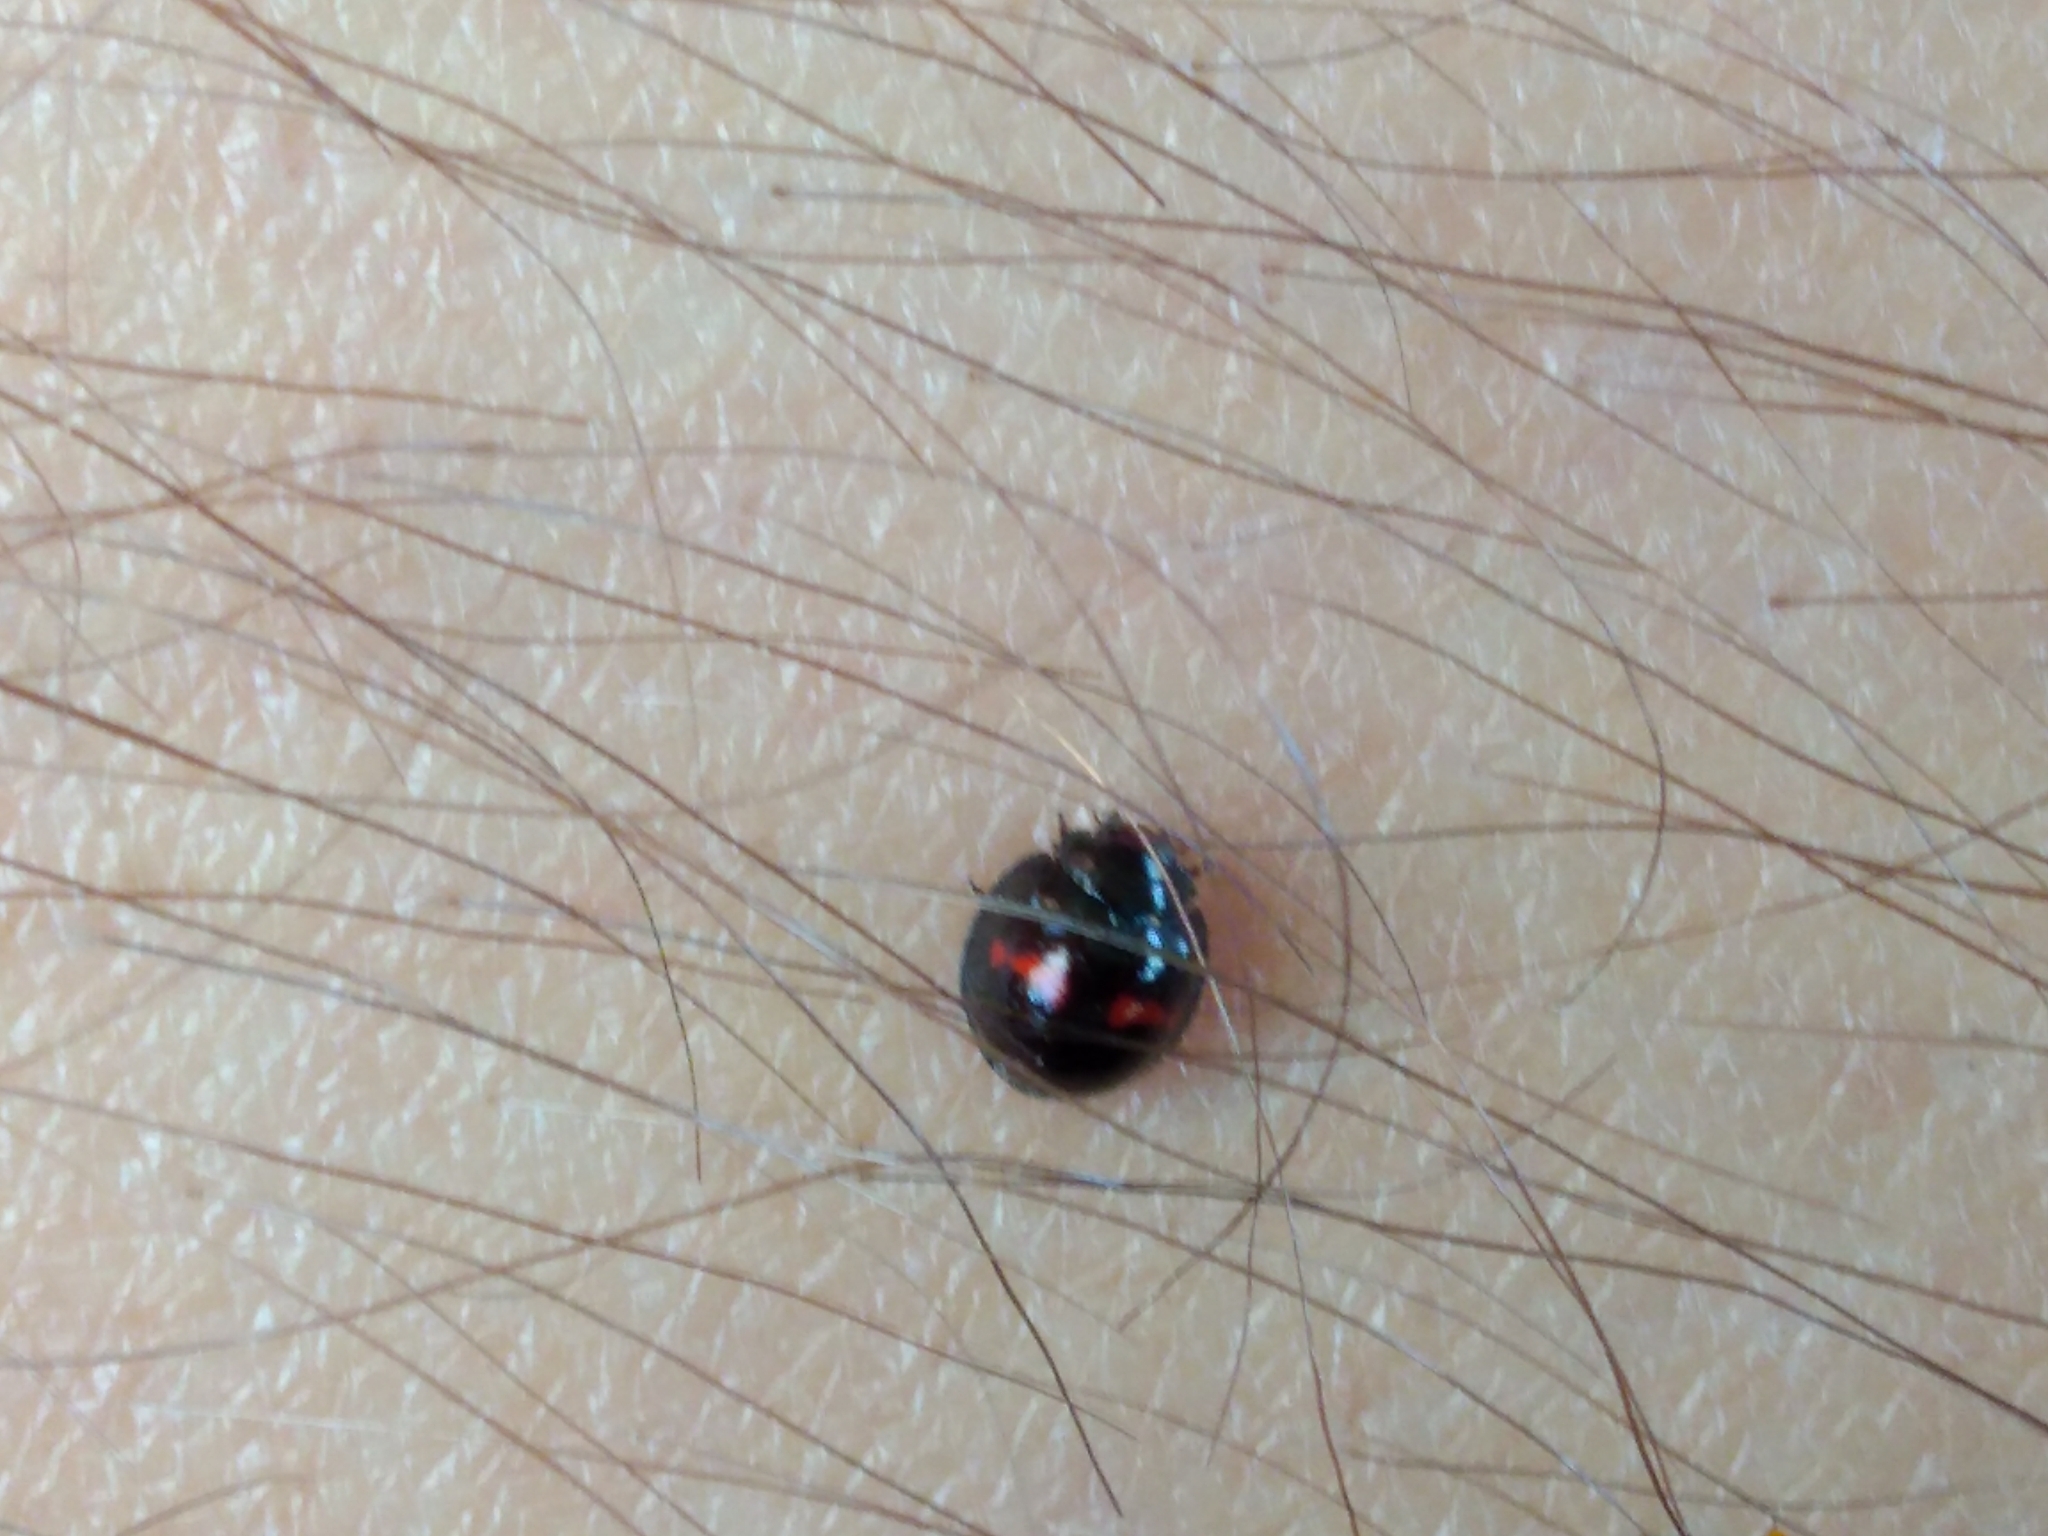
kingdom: Animalia
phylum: Arthropoda
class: Insecta
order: Coleoptera
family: Coccinellidae
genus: Chilocorus
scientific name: Chilocorus bipustulatus
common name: Heather ladybird
